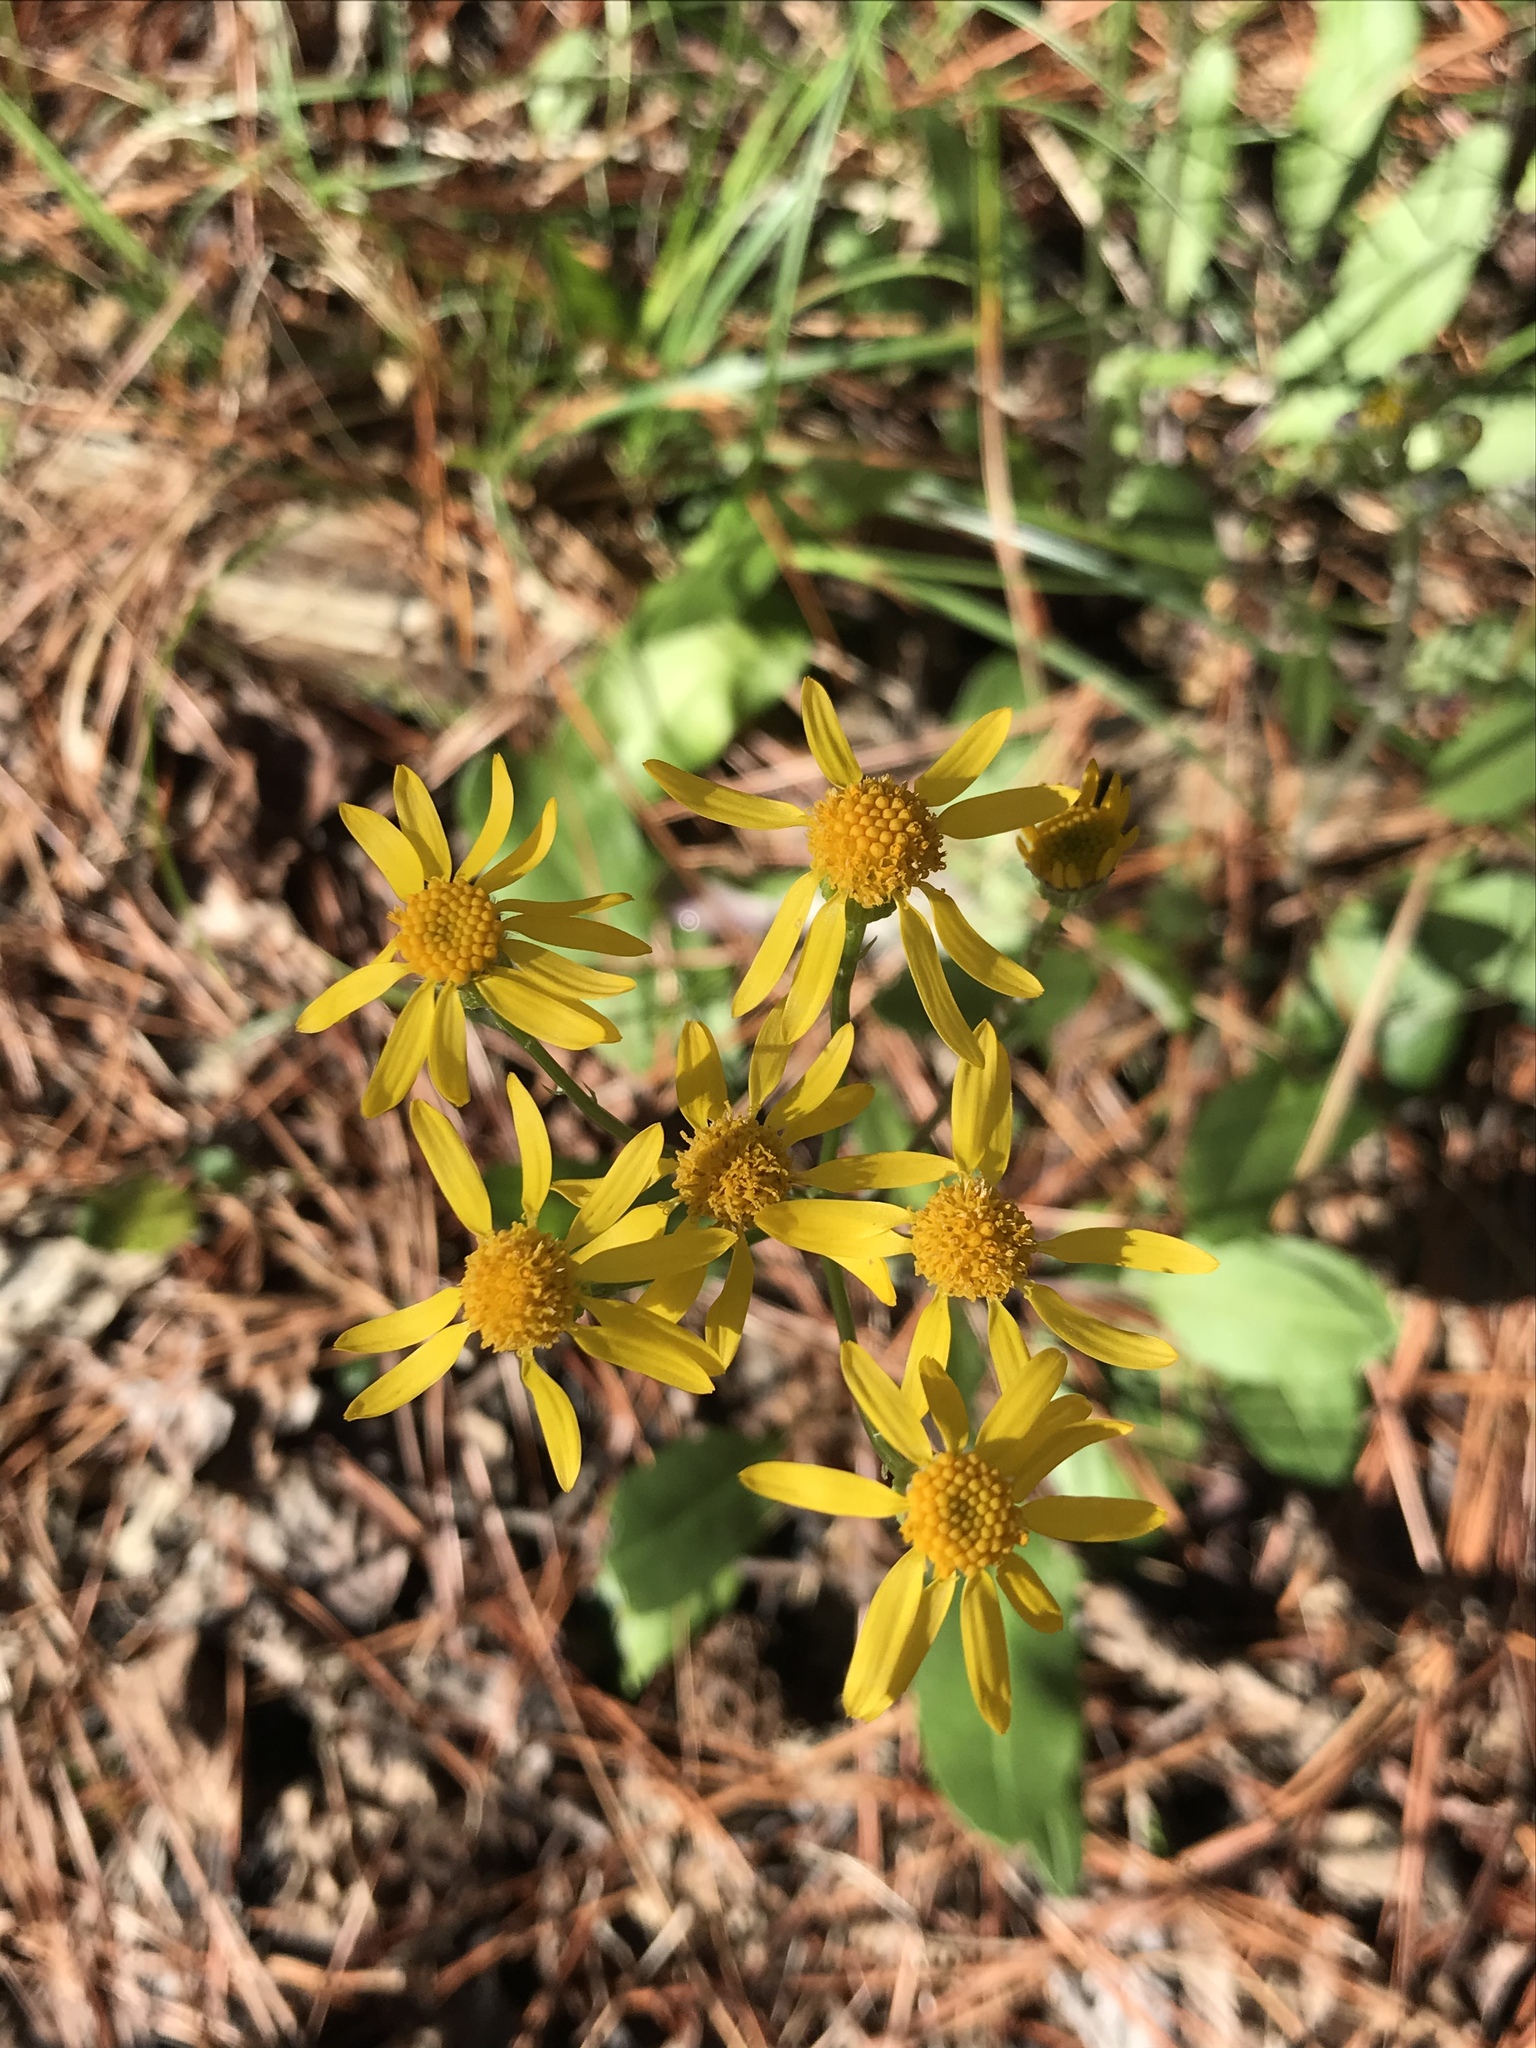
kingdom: Plantae
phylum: Tracheophyta
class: Magnoliopsida
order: Asterales
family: Asteraceae
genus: Packera
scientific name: Packera obovata
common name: Round-leaf ragwort
